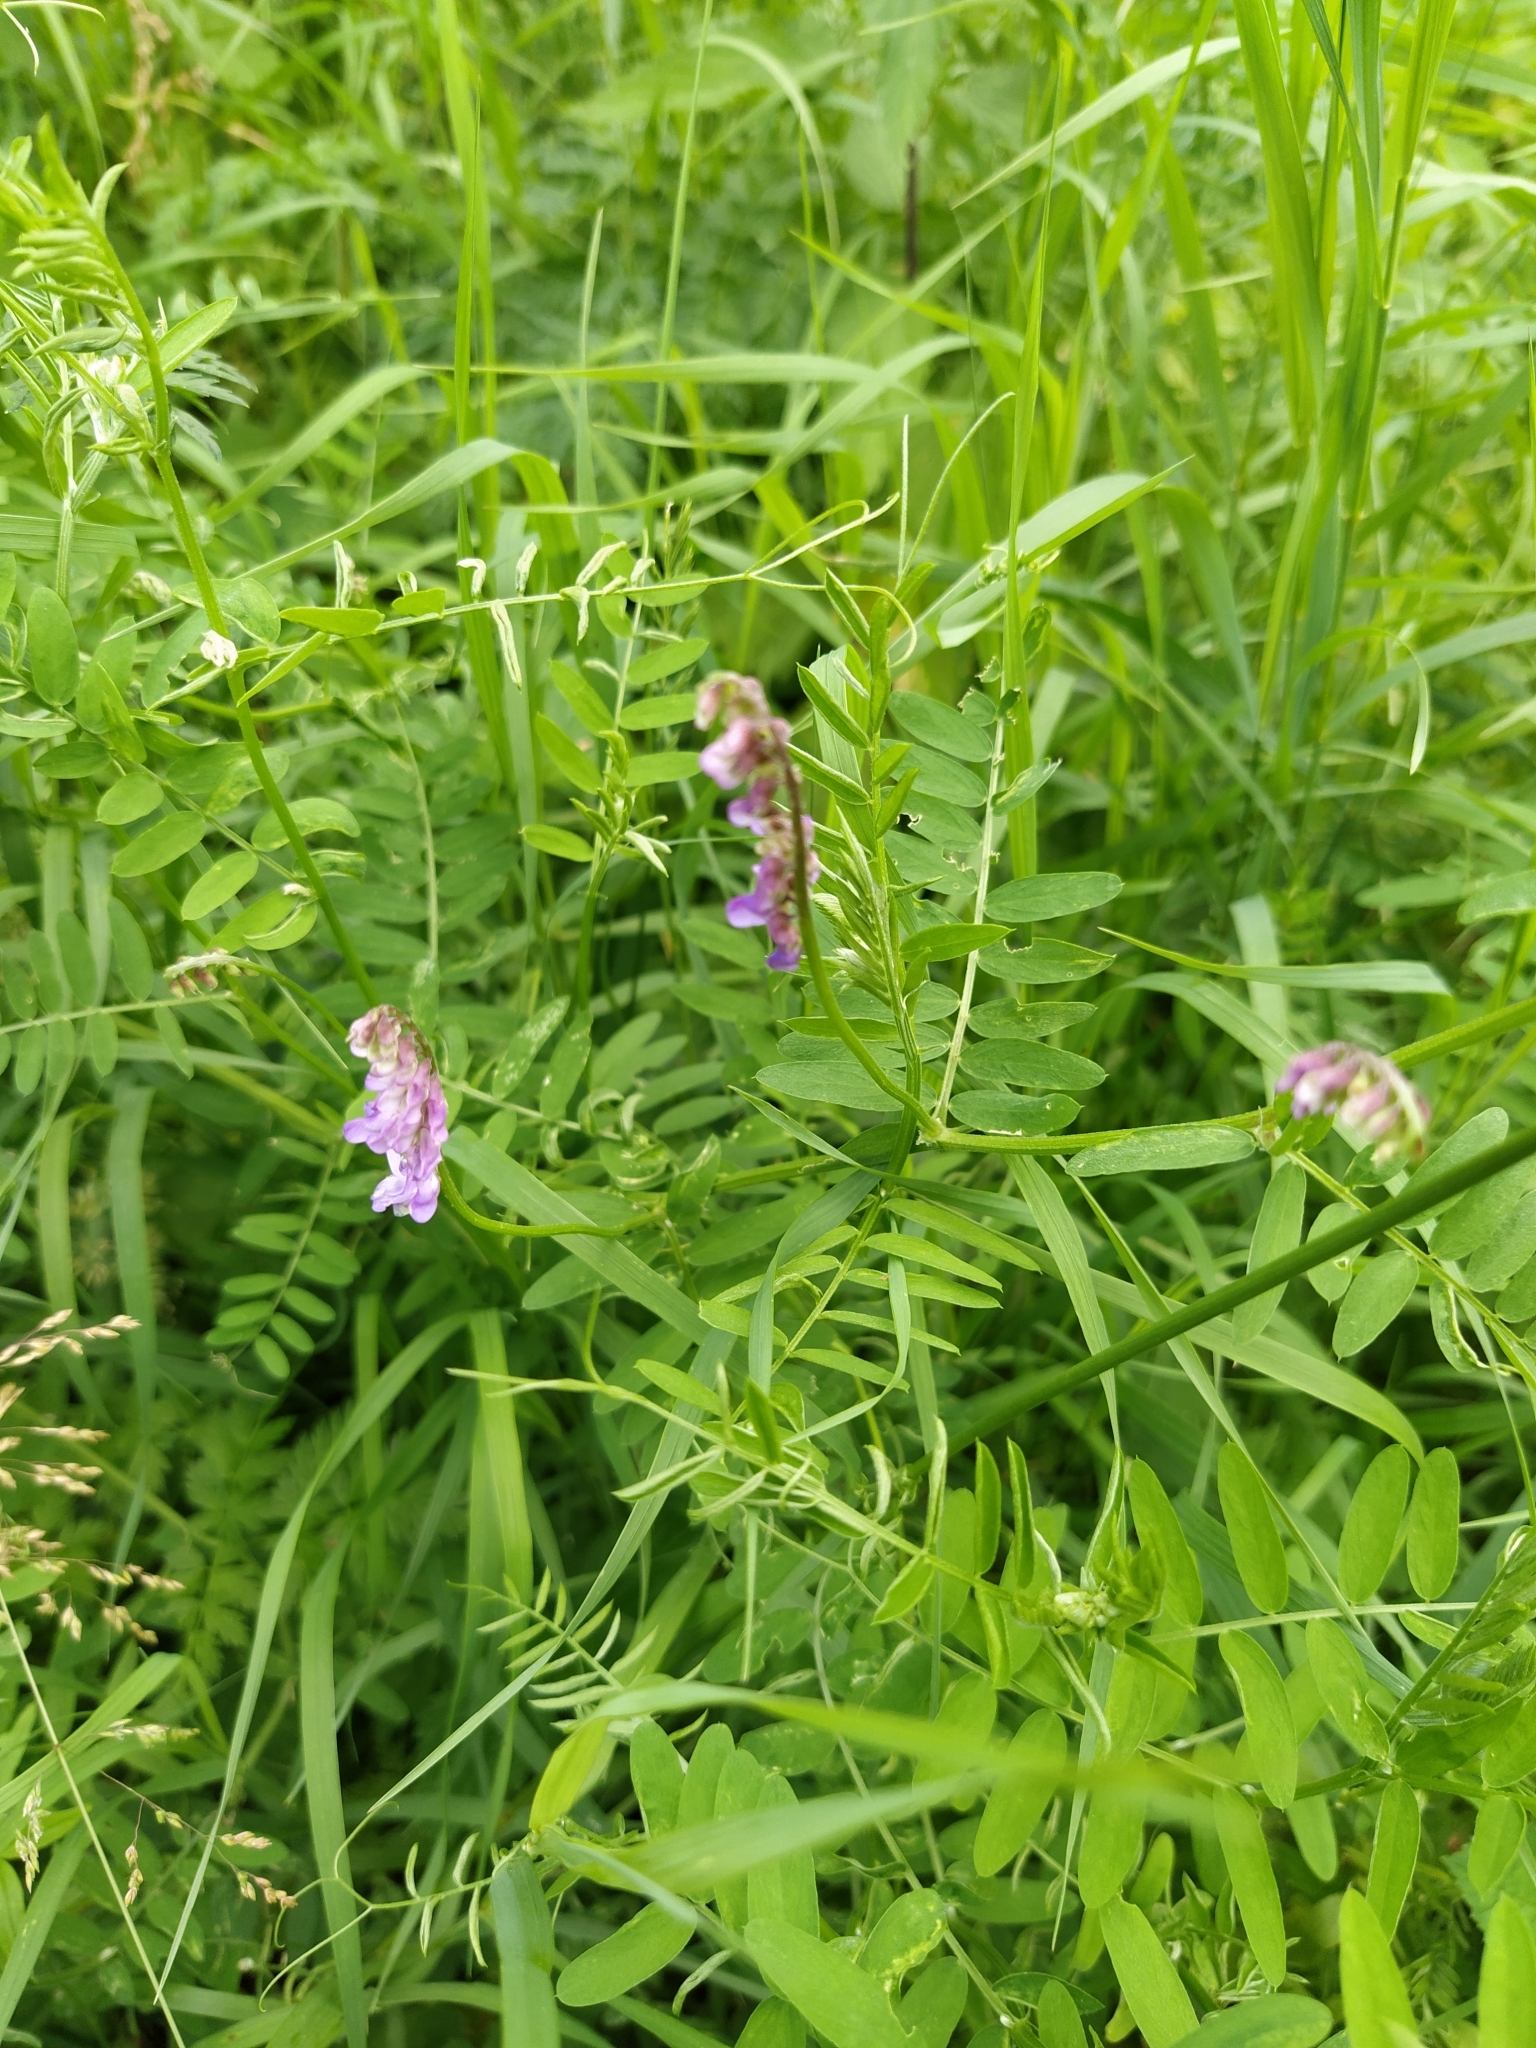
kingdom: Plantae
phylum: Tracheophyta
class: Magnoliopsida
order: Fabales
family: Fabaceae
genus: Vicia
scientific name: Vicia cracca
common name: Bird vetch
